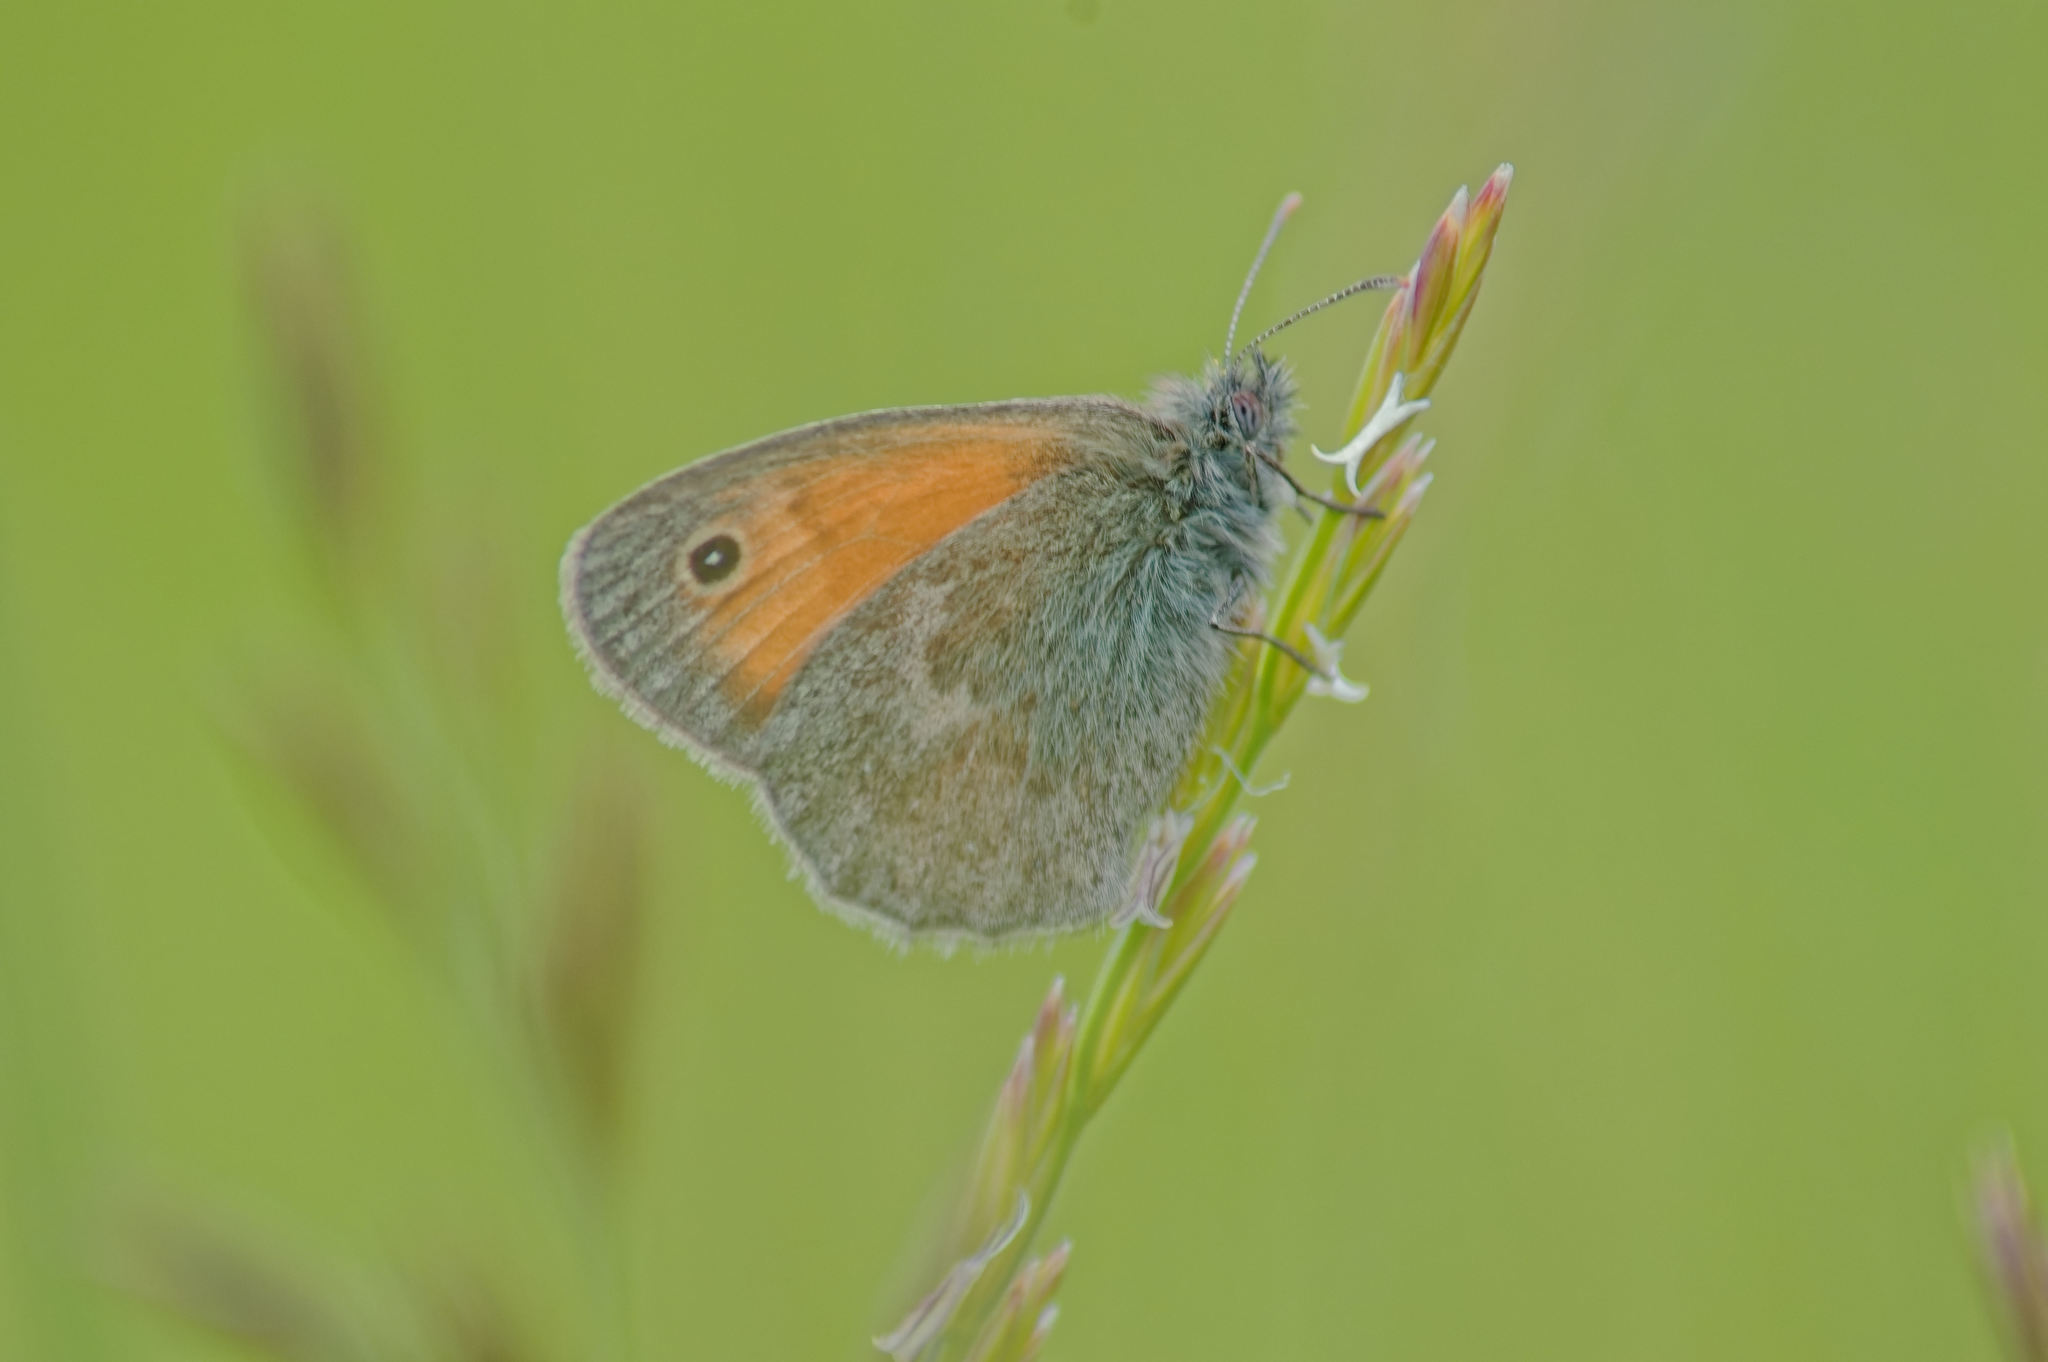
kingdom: Animalia
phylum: Arthropoda
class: Insecta
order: Lepidoptera
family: Nymphalidae
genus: Coenonympha
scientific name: Coenonympha pamphilus
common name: Small heath
